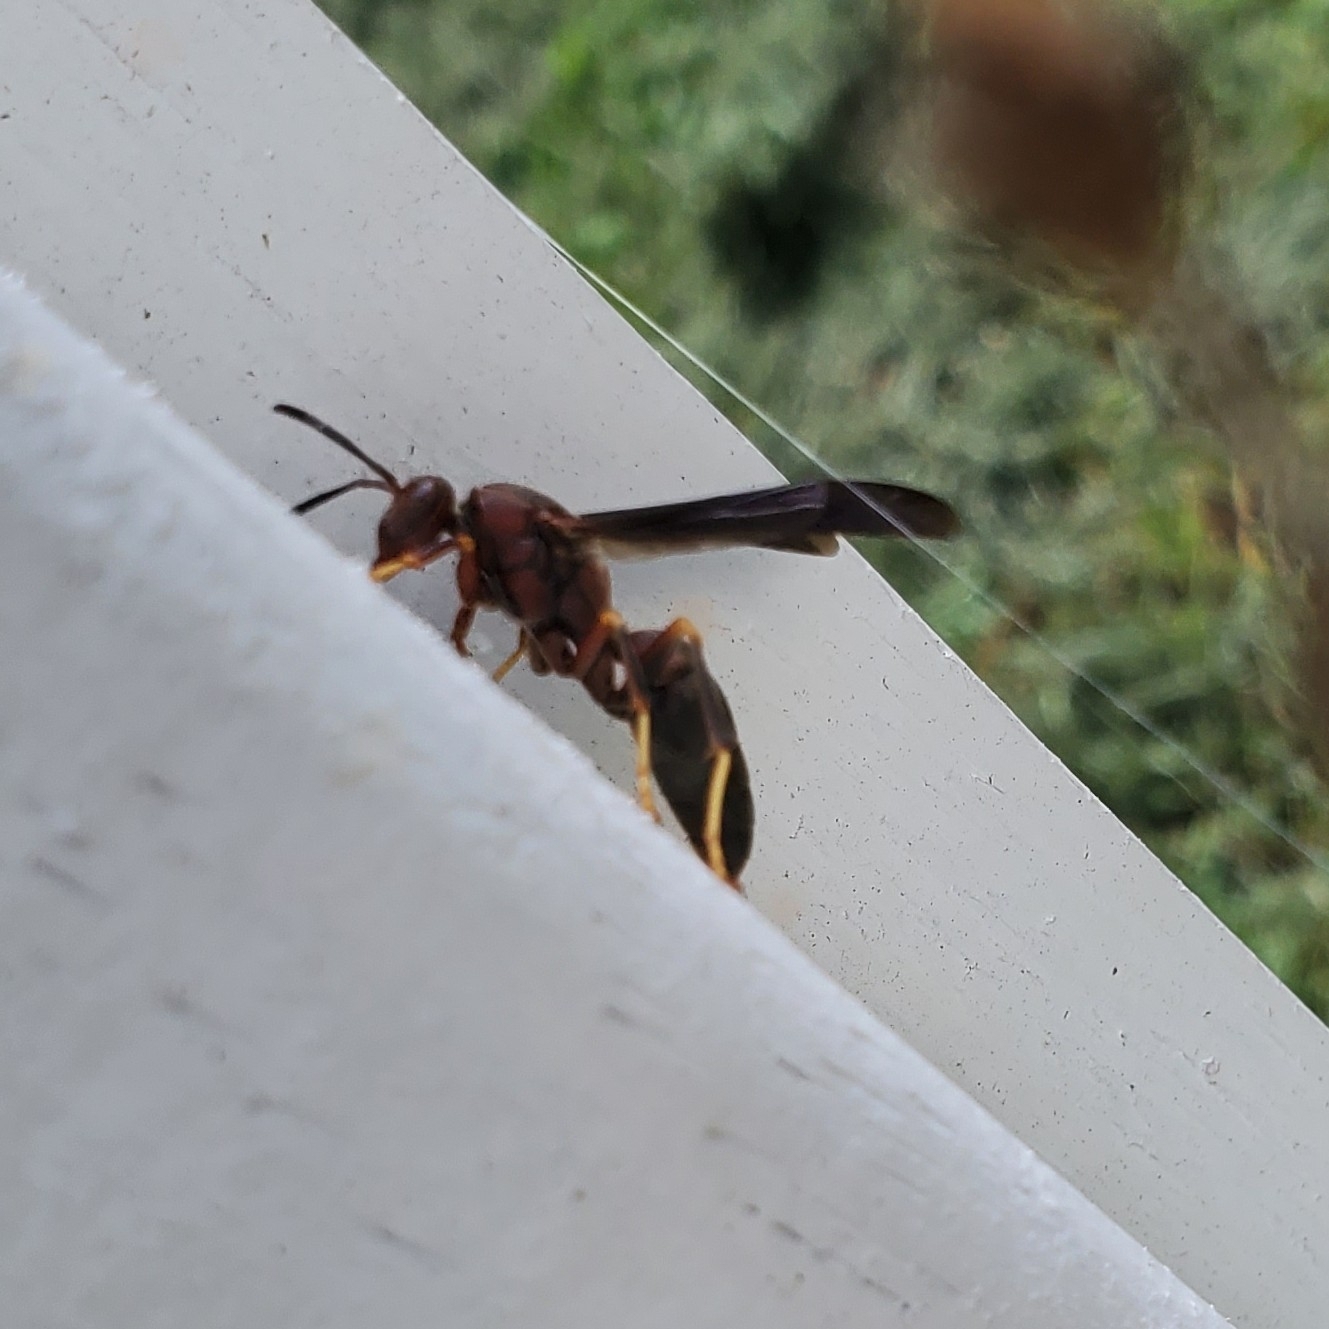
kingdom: Animalia
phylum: Arthropoda
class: Insecta
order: Hymenoptera
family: Eumenidae
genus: Polistes
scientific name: Polistes metricus
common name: Metric paper wasp
